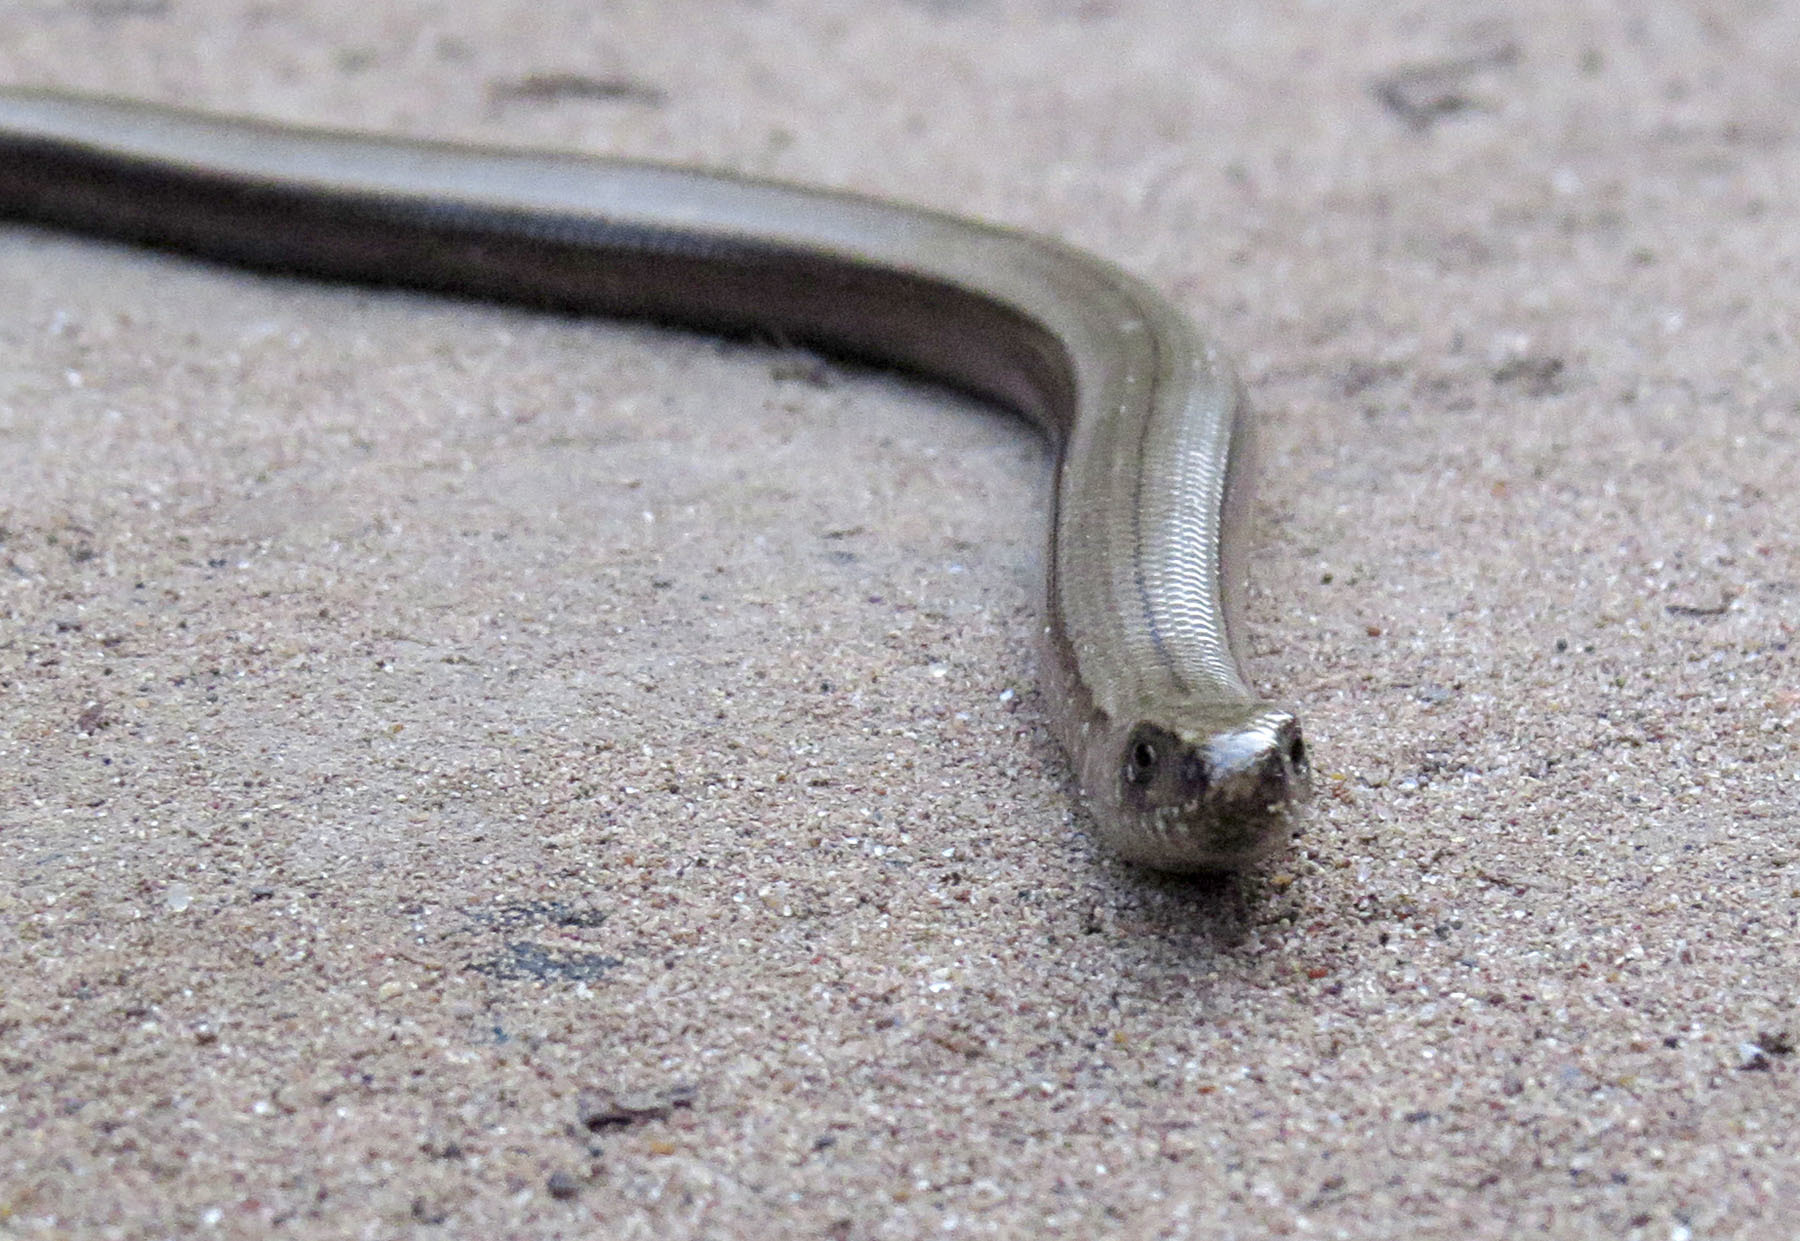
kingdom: Animalia
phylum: Chordata
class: Squamata
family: Anguidae
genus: Anguis
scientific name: Anguis colchica
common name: Slow worm
